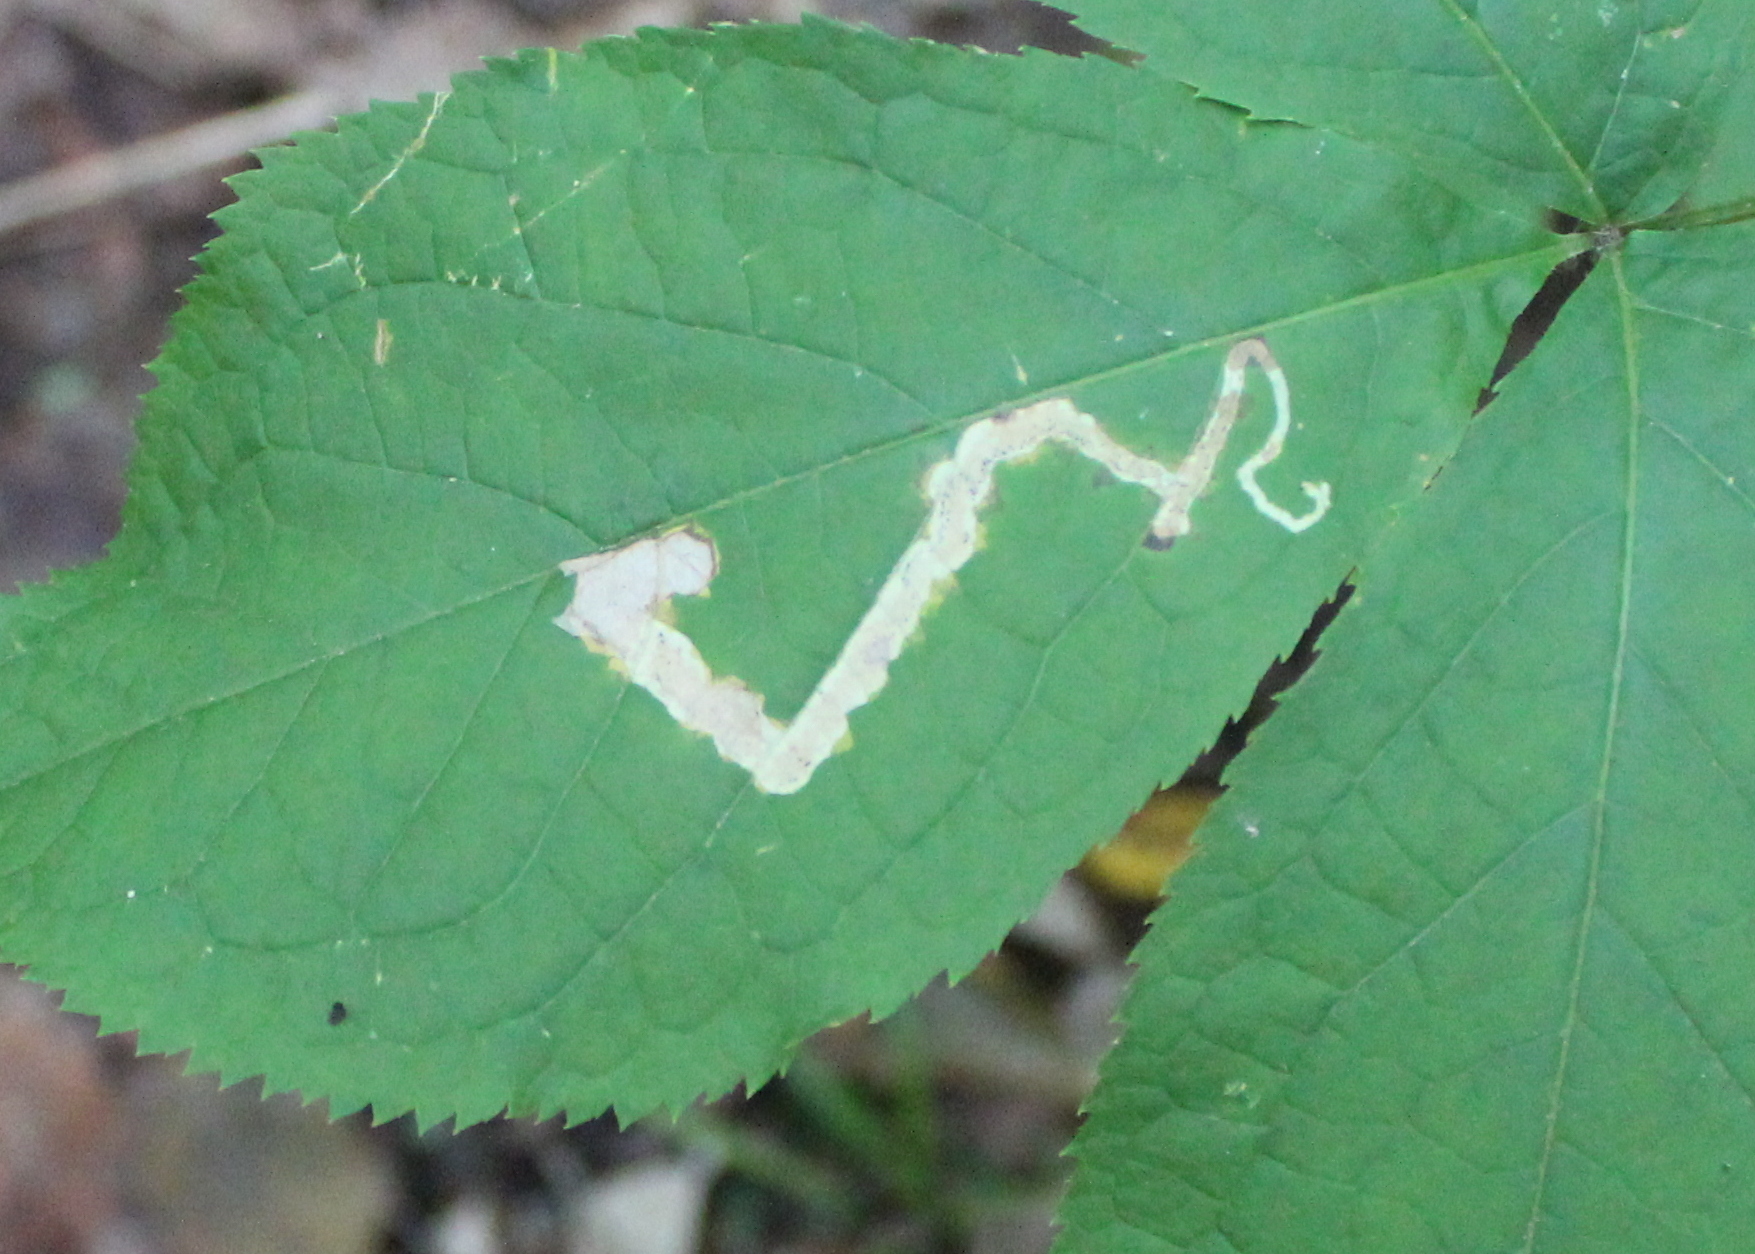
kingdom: Animalia
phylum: Arthropoda
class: Insecta
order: Diptera
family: Agromyzidae
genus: Phytomyza
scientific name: Phytomyza aralivora
